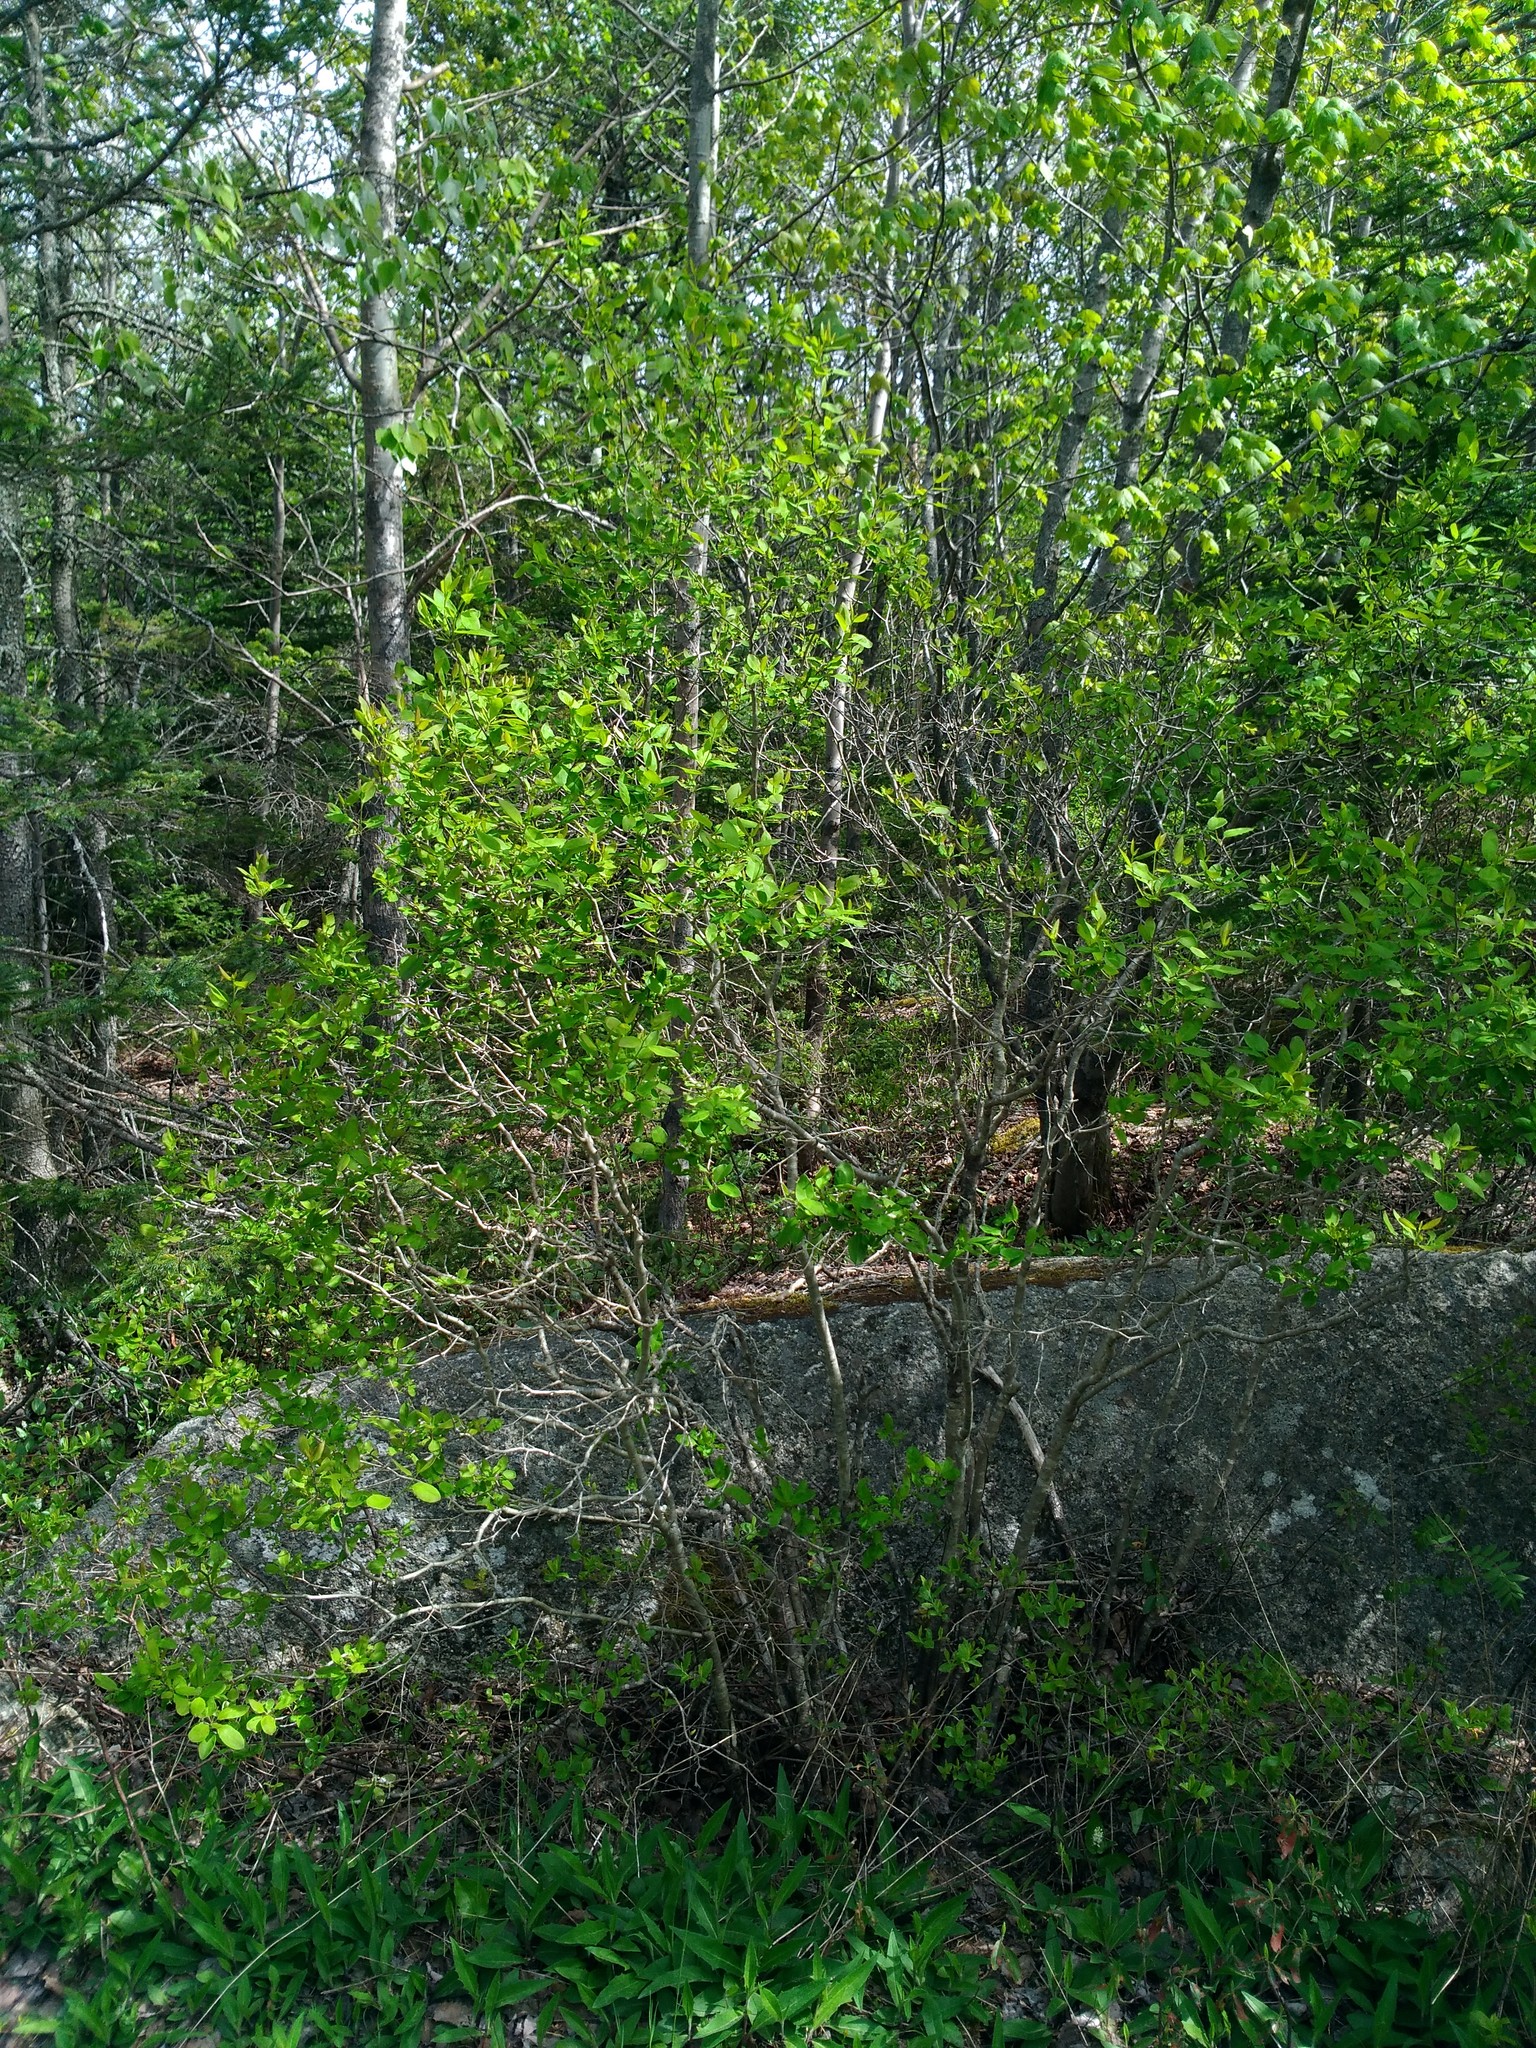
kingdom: Plantae
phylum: Tracheophyta
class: Magnoliopsida
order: Aquifoliales
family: Aquifoliaceae
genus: Ilex
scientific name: Ilex mucronata
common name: Catberry
